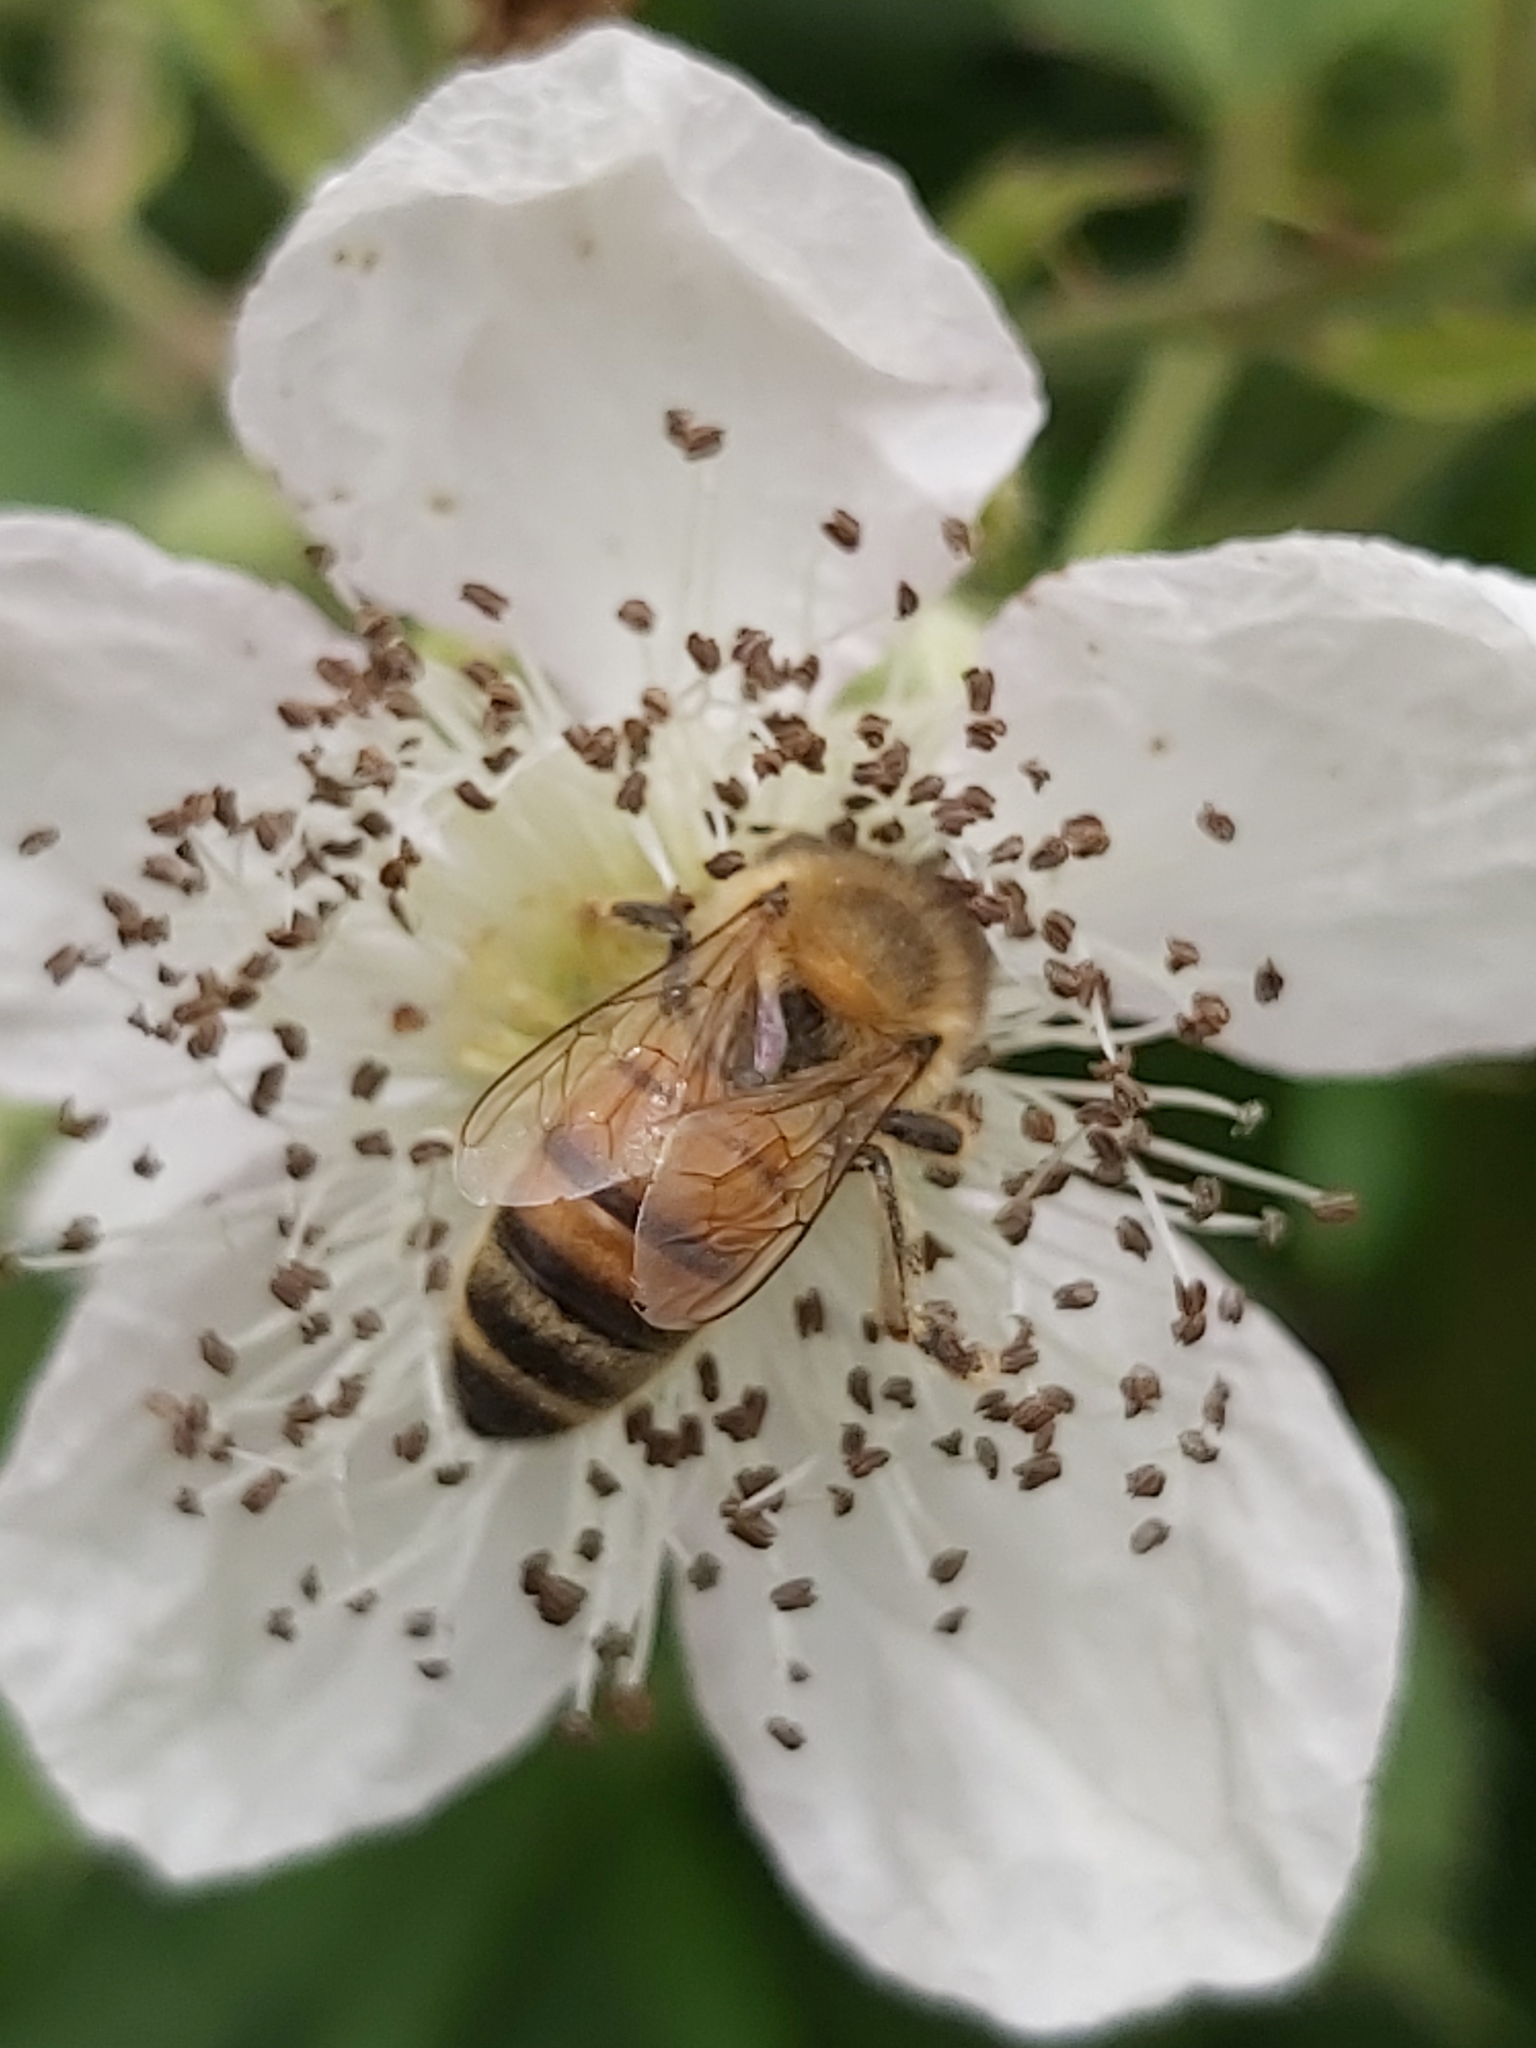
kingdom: Animalia
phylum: Arthropoda
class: Insecta
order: Hymenoptera
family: Apidae
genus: Apis
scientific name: Apis mellifera
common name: Honey bee
